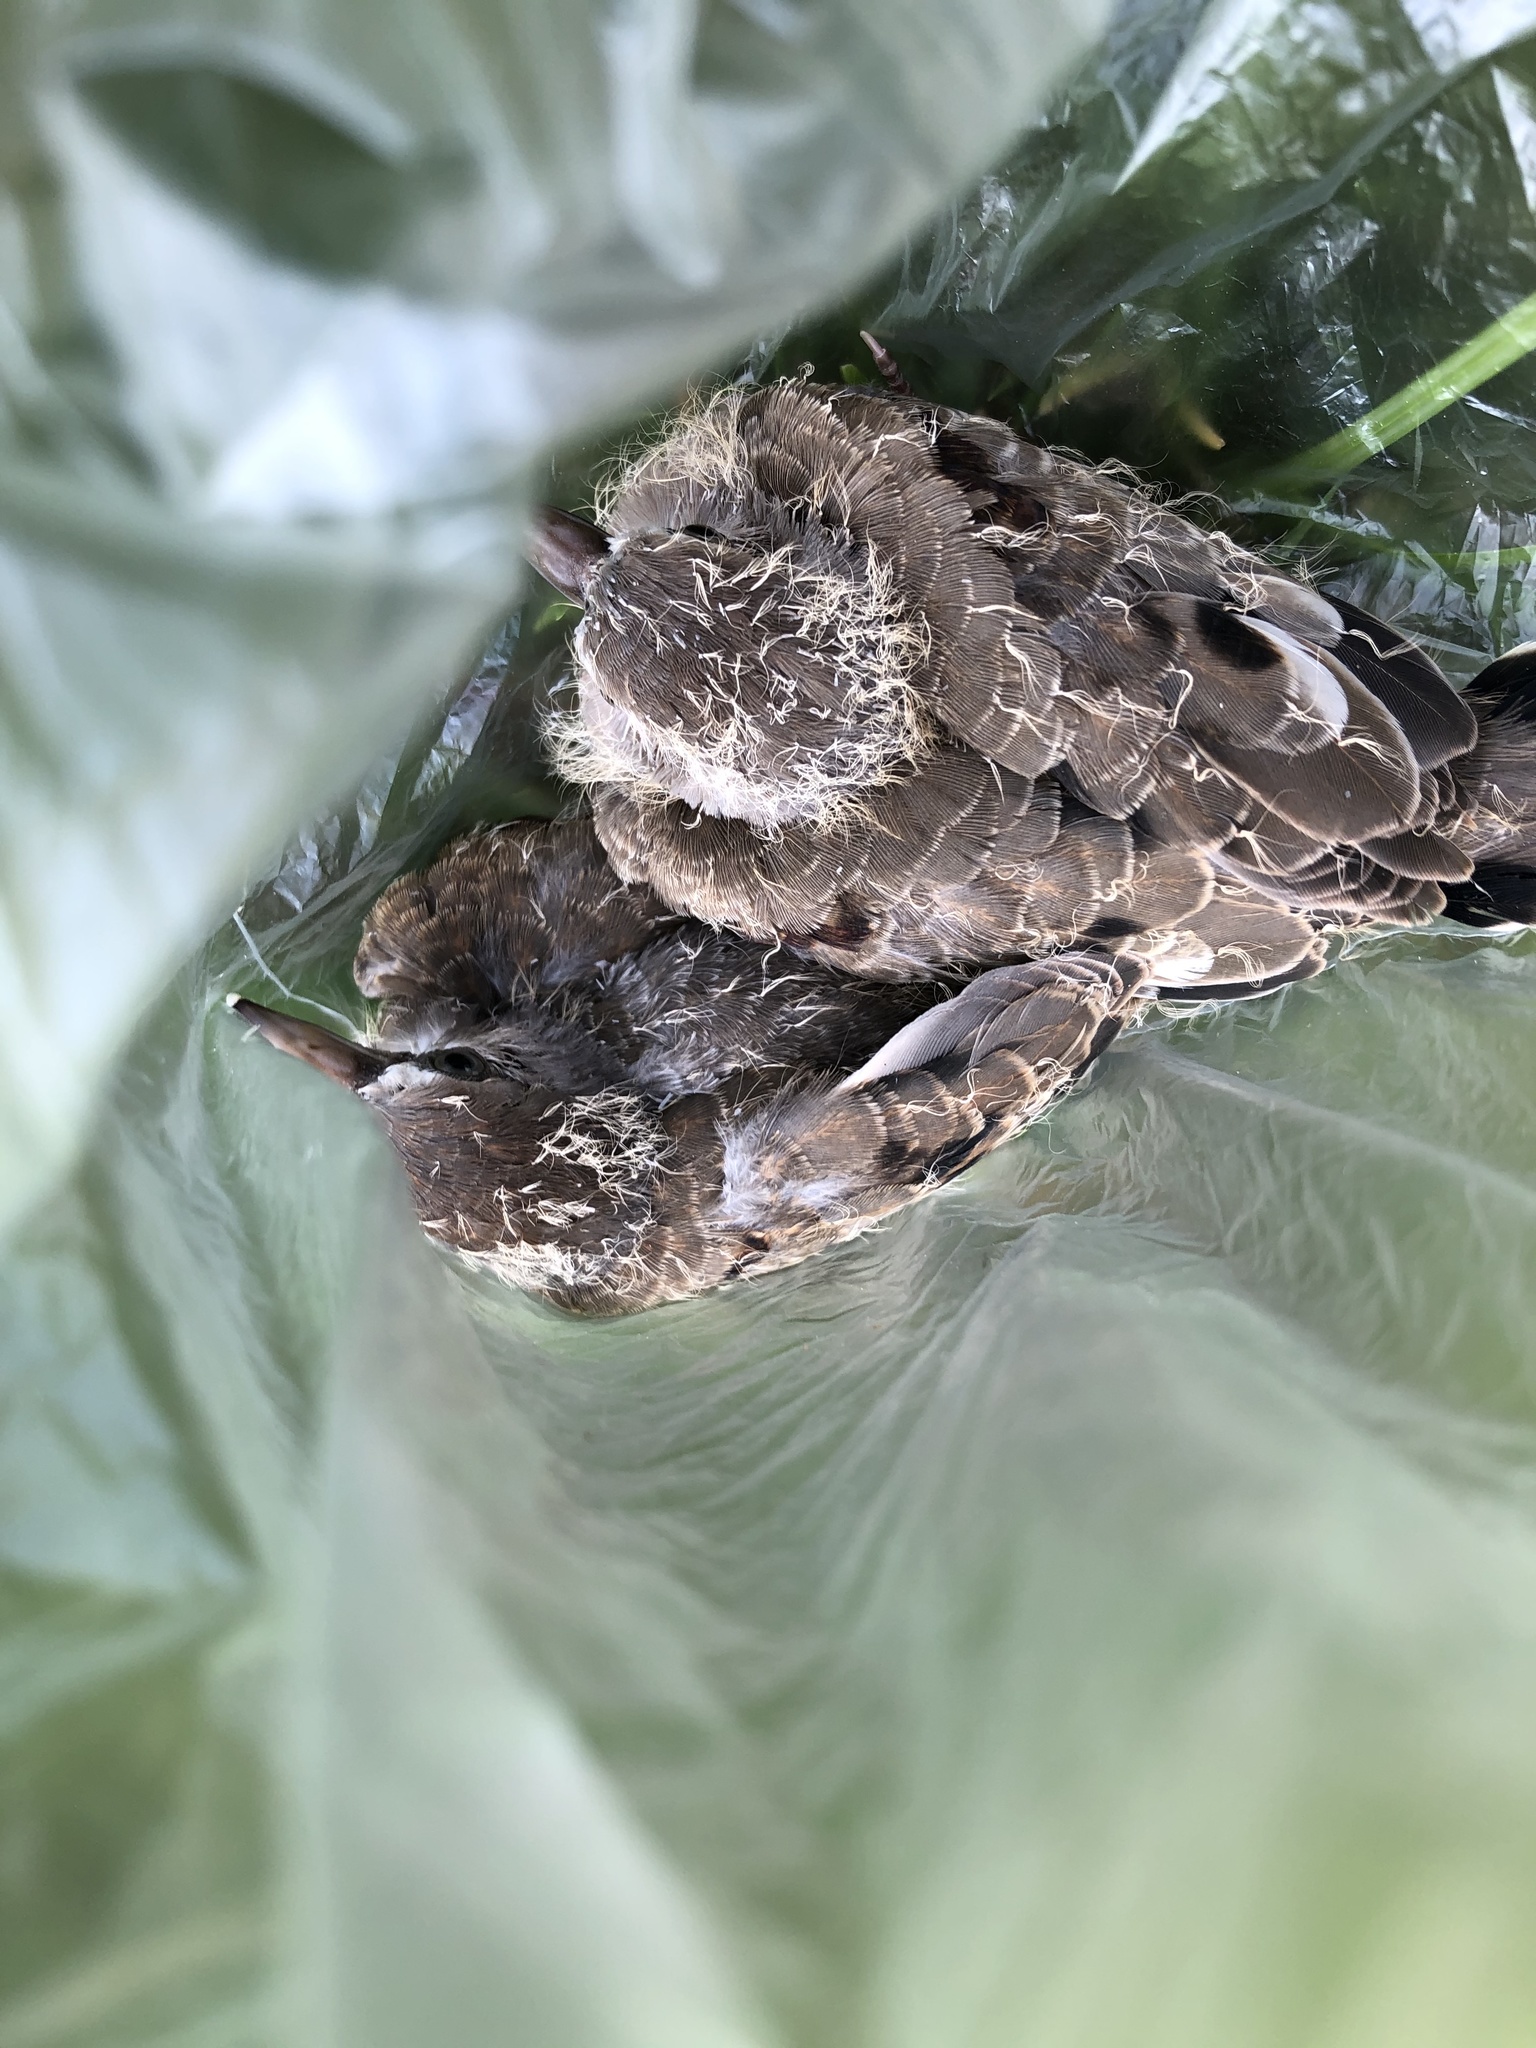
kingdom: Animalia
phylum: Chordata
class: Aves
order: Columbiformes
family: Columbidae
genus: Columbina
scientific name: Columbina cruziana
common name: Croaking ground dove
